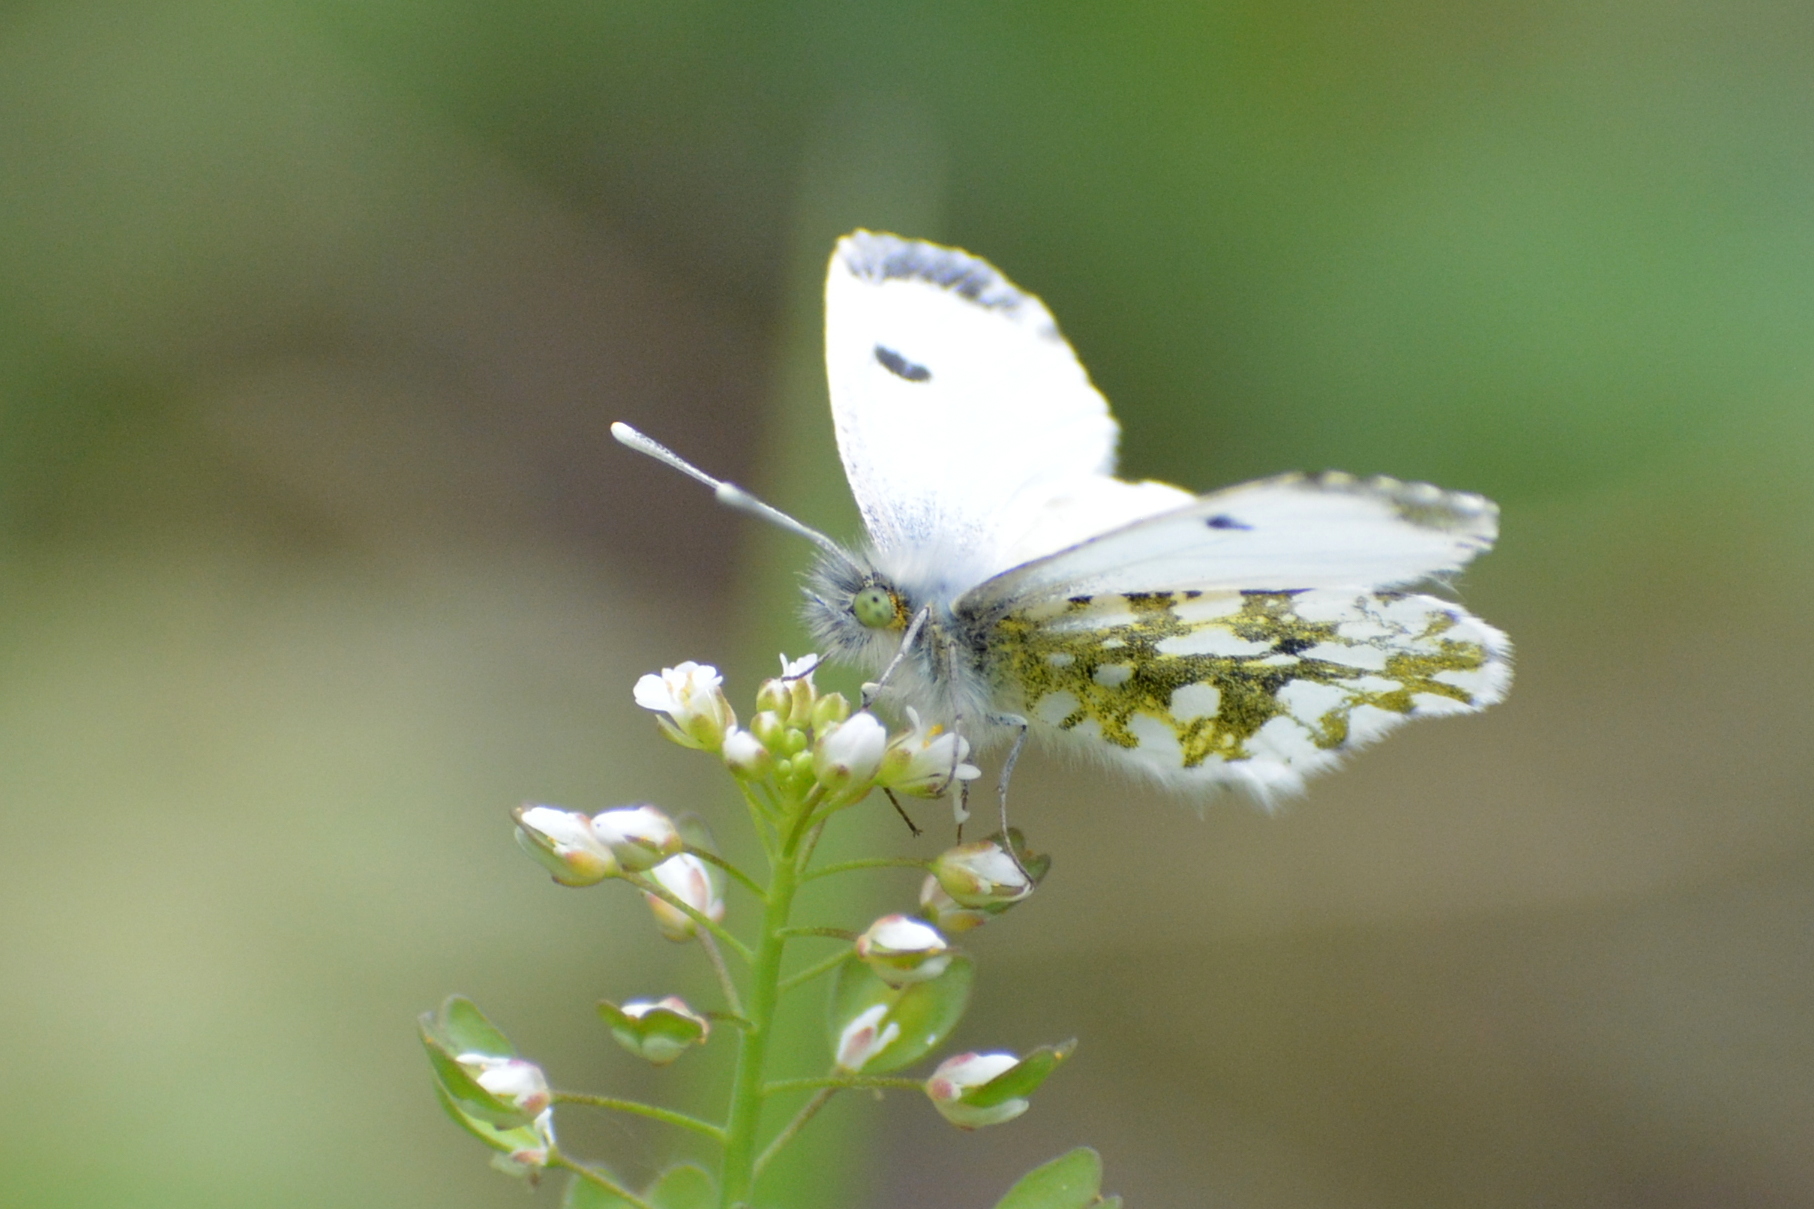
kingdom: Animalia
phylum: Arthropoda
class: Insecta
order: Lepidoptera
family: Pieridae
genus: Anthocharis
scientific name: Anthocharis cardamines
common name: Orange-tip
